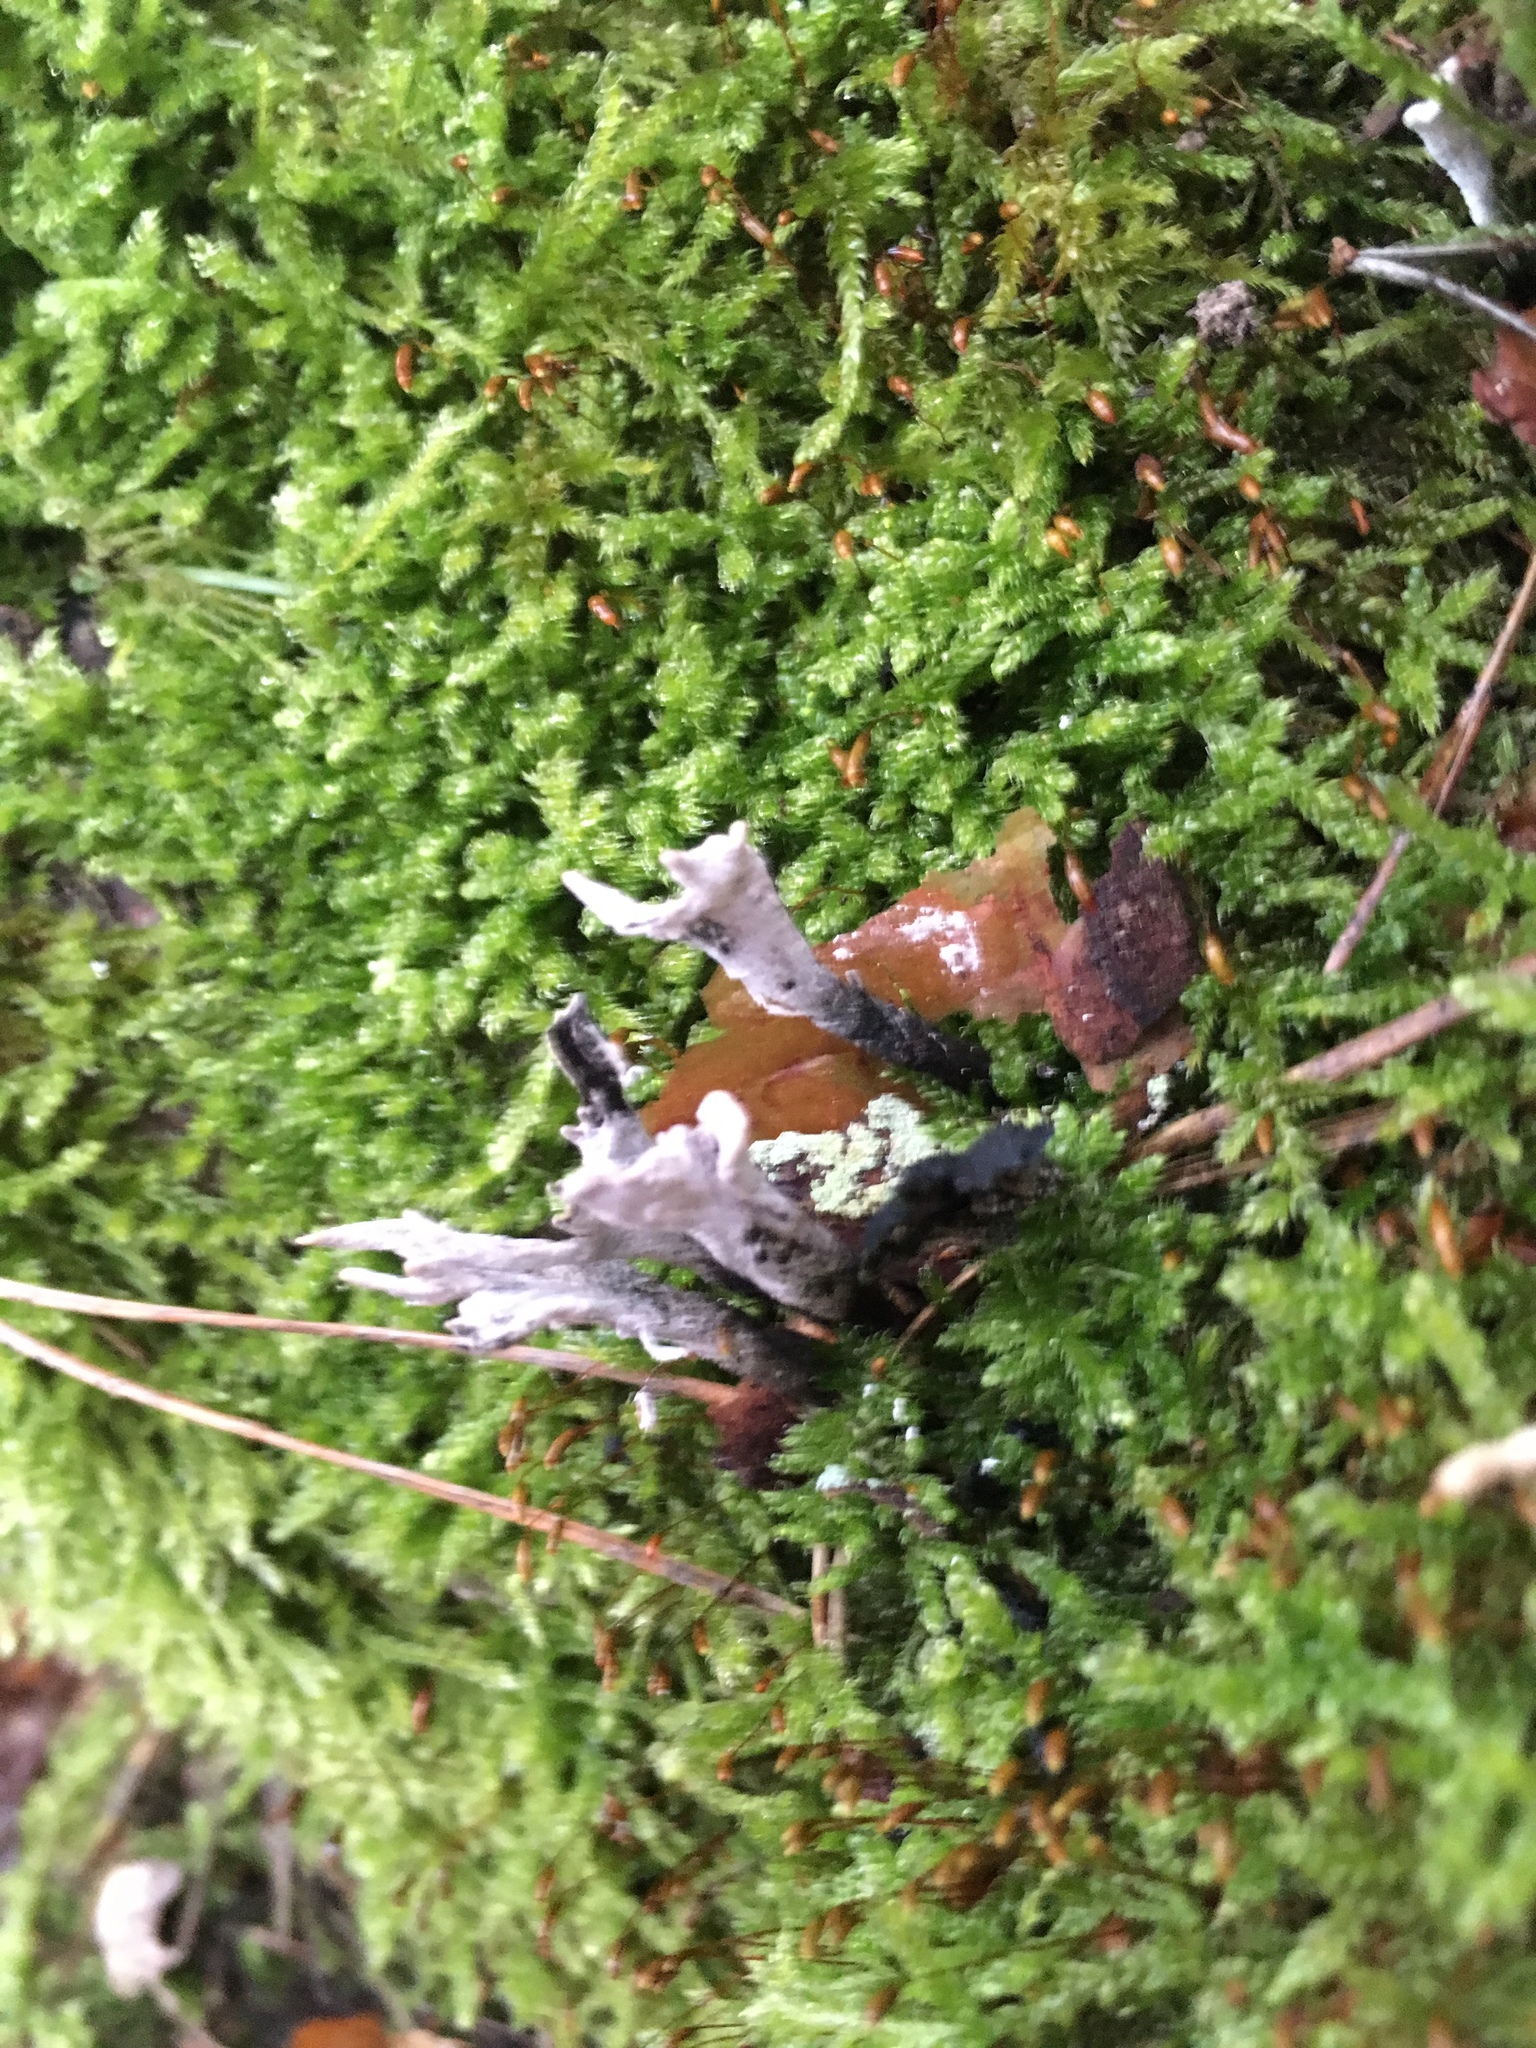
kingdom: Fungi
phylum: Ascomycota
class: Sordariomycetes
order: Xylariales
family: Xylariaceae
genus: Xylaria
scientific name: Xylaria hypoxylon
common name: Candle-snuff fungus
